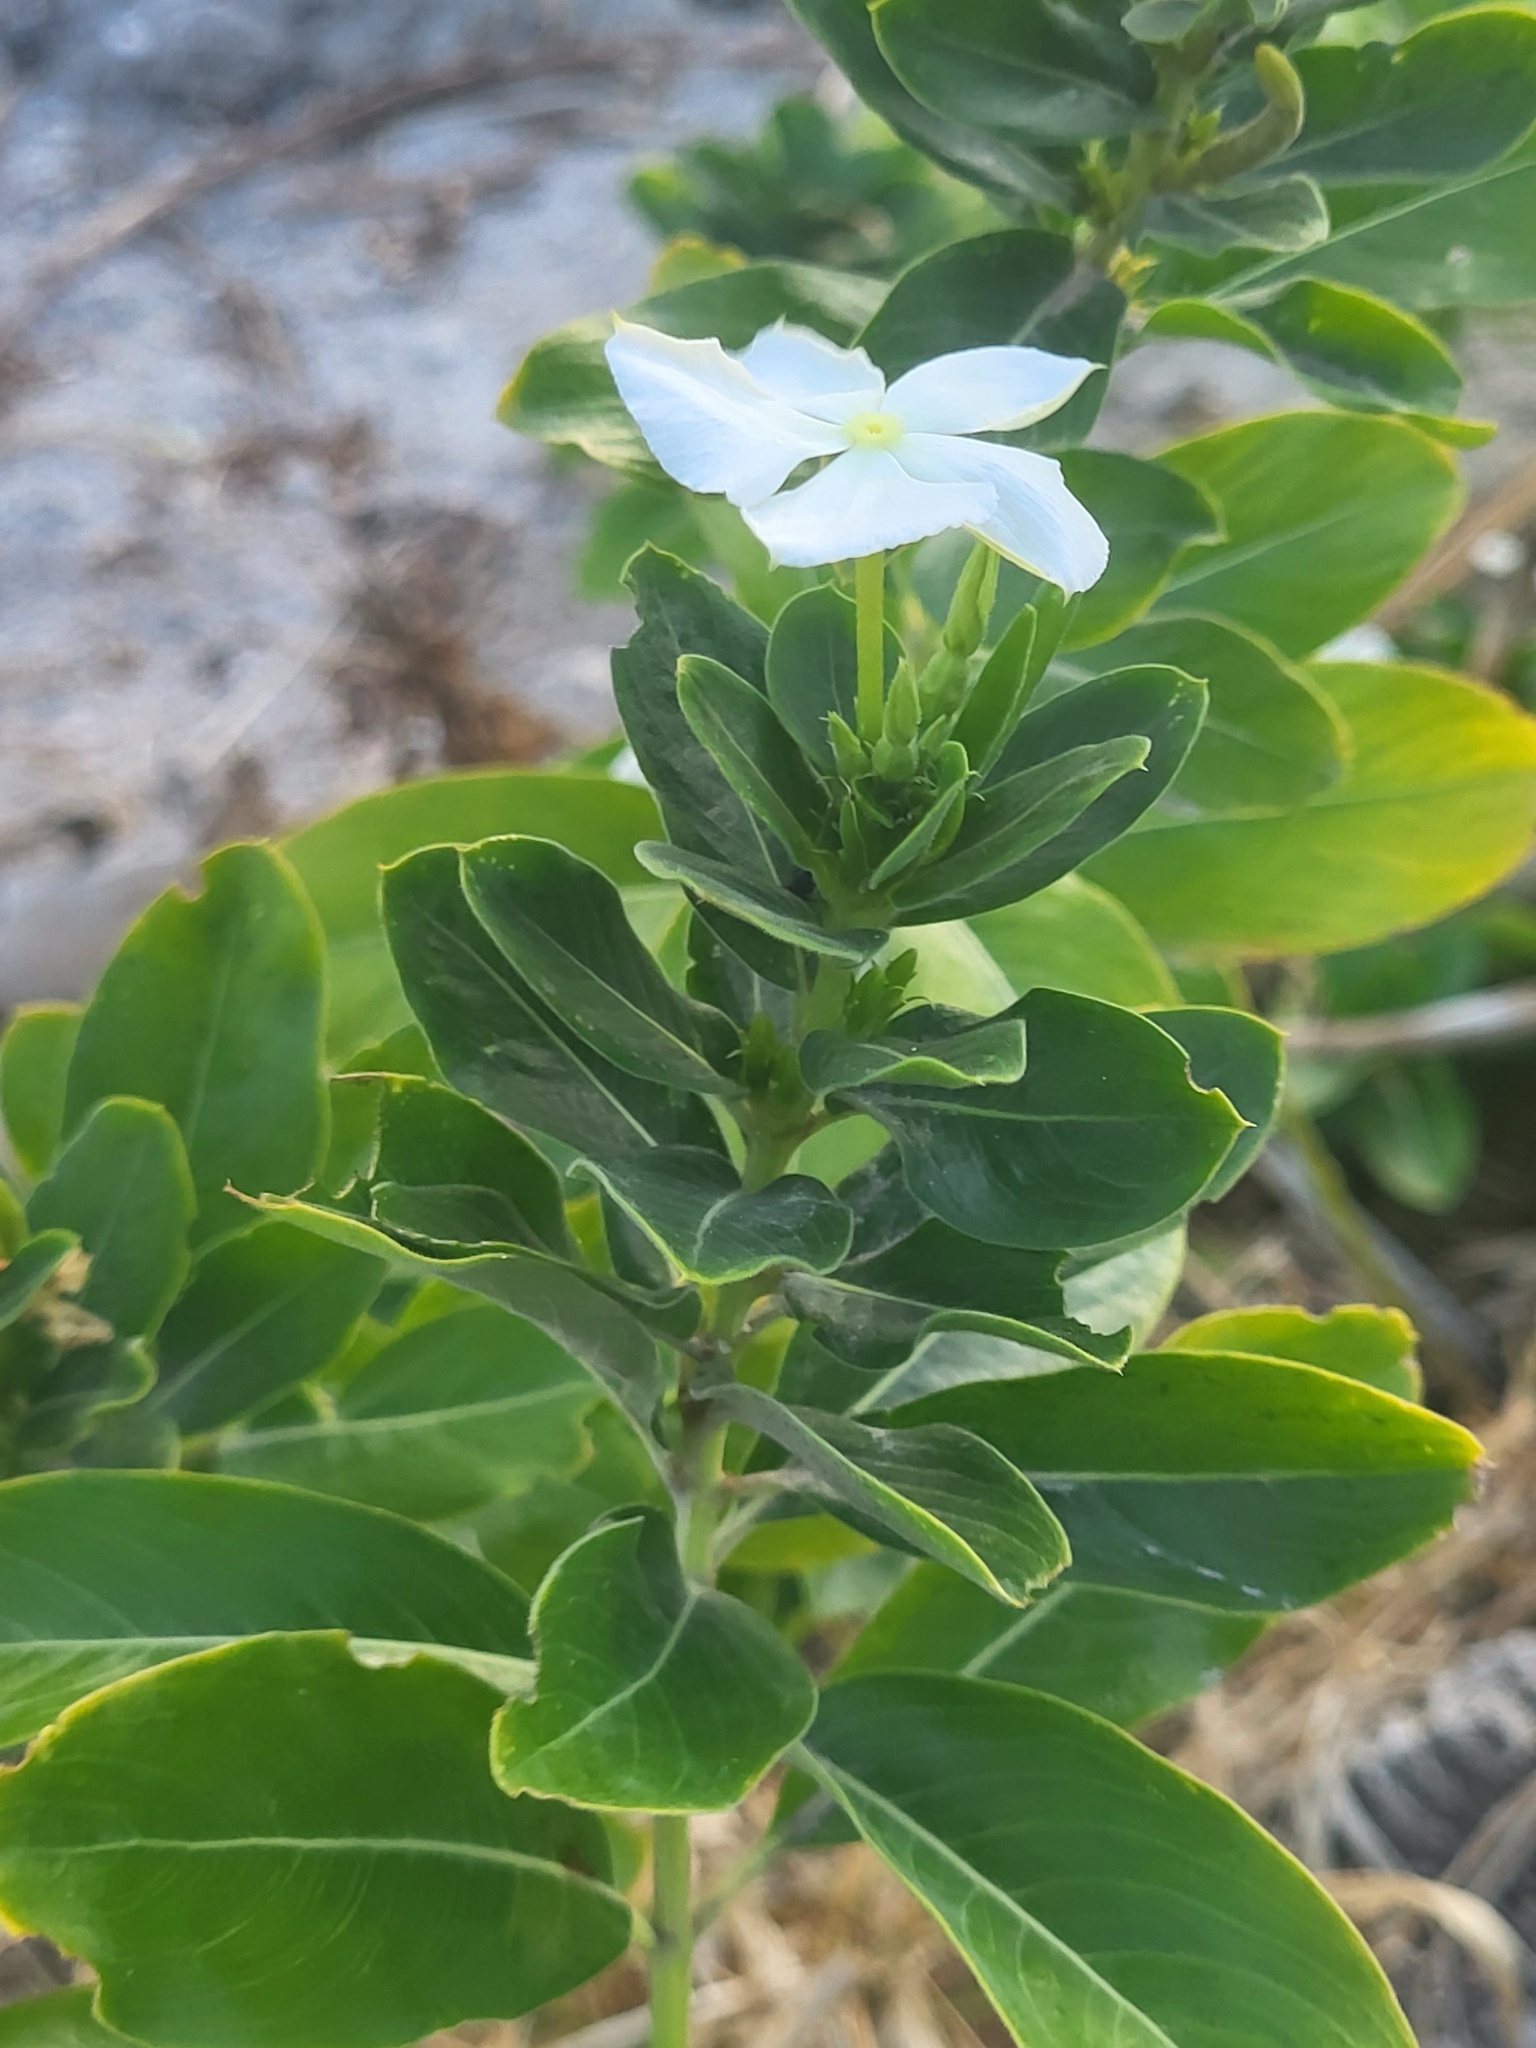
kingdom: Plantae
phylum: Tracheophyta
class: Magnoliopsida
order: Gentianales
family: Apocynaceae
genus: Catharanthus
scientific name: Catharanthus roseus
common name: Madagascar periwinkle
